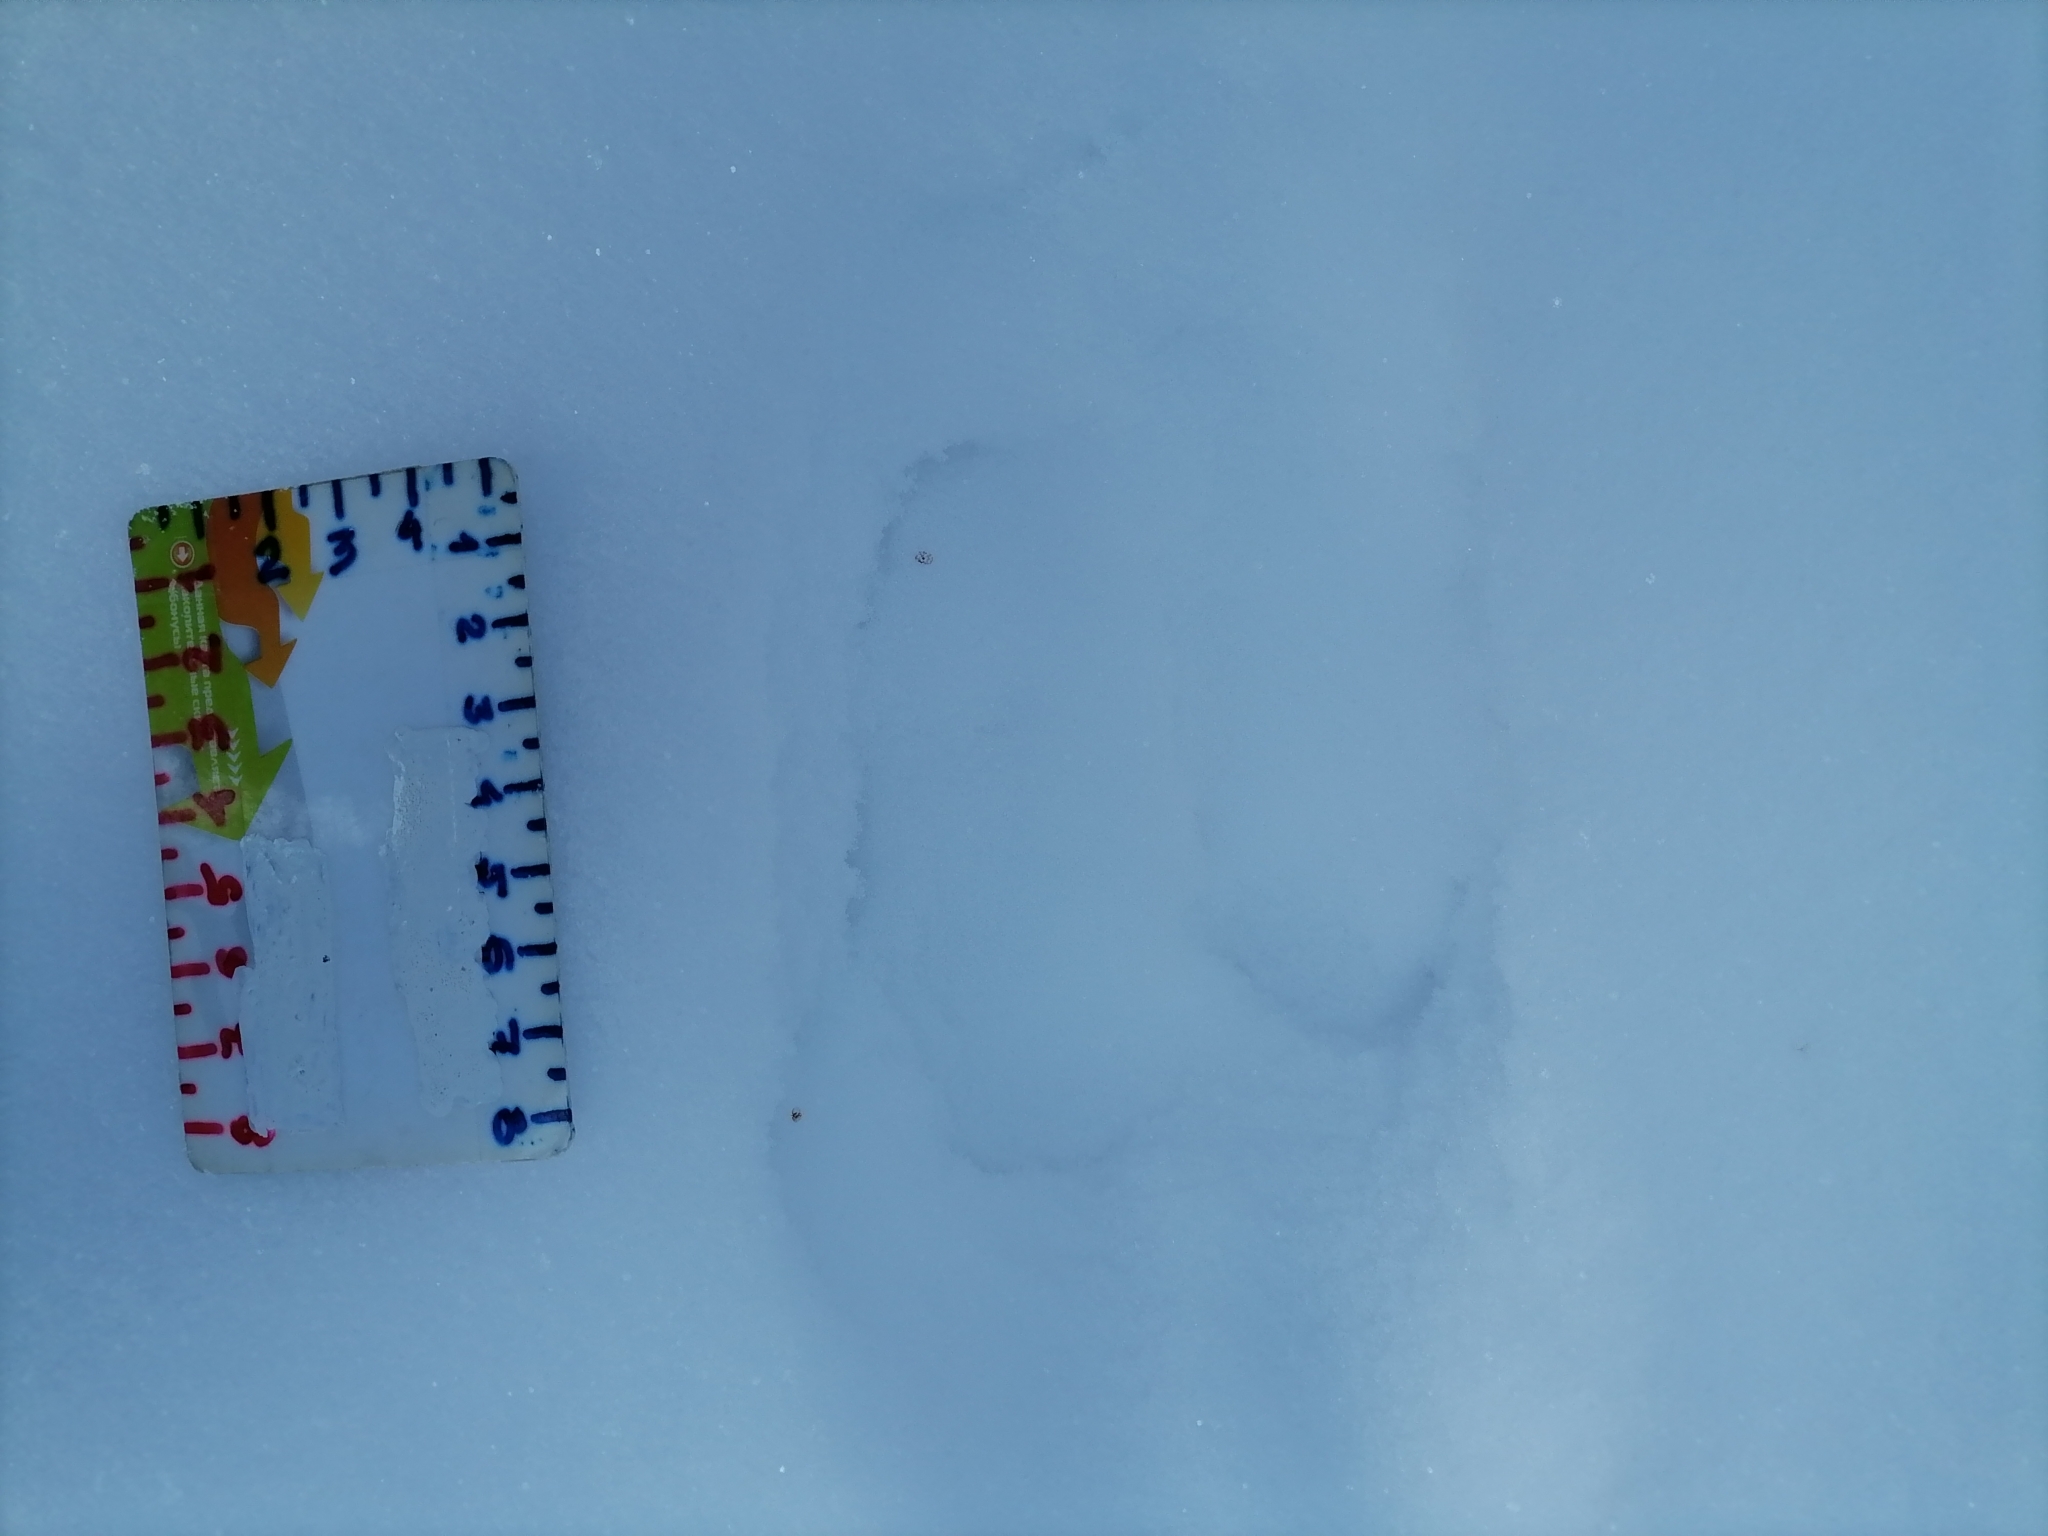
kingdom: Animalia
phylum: Chordata
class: Mammalia
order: Carnivora
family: Mustelidae
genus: Martes
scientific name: Martes martes
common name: European pine marten
